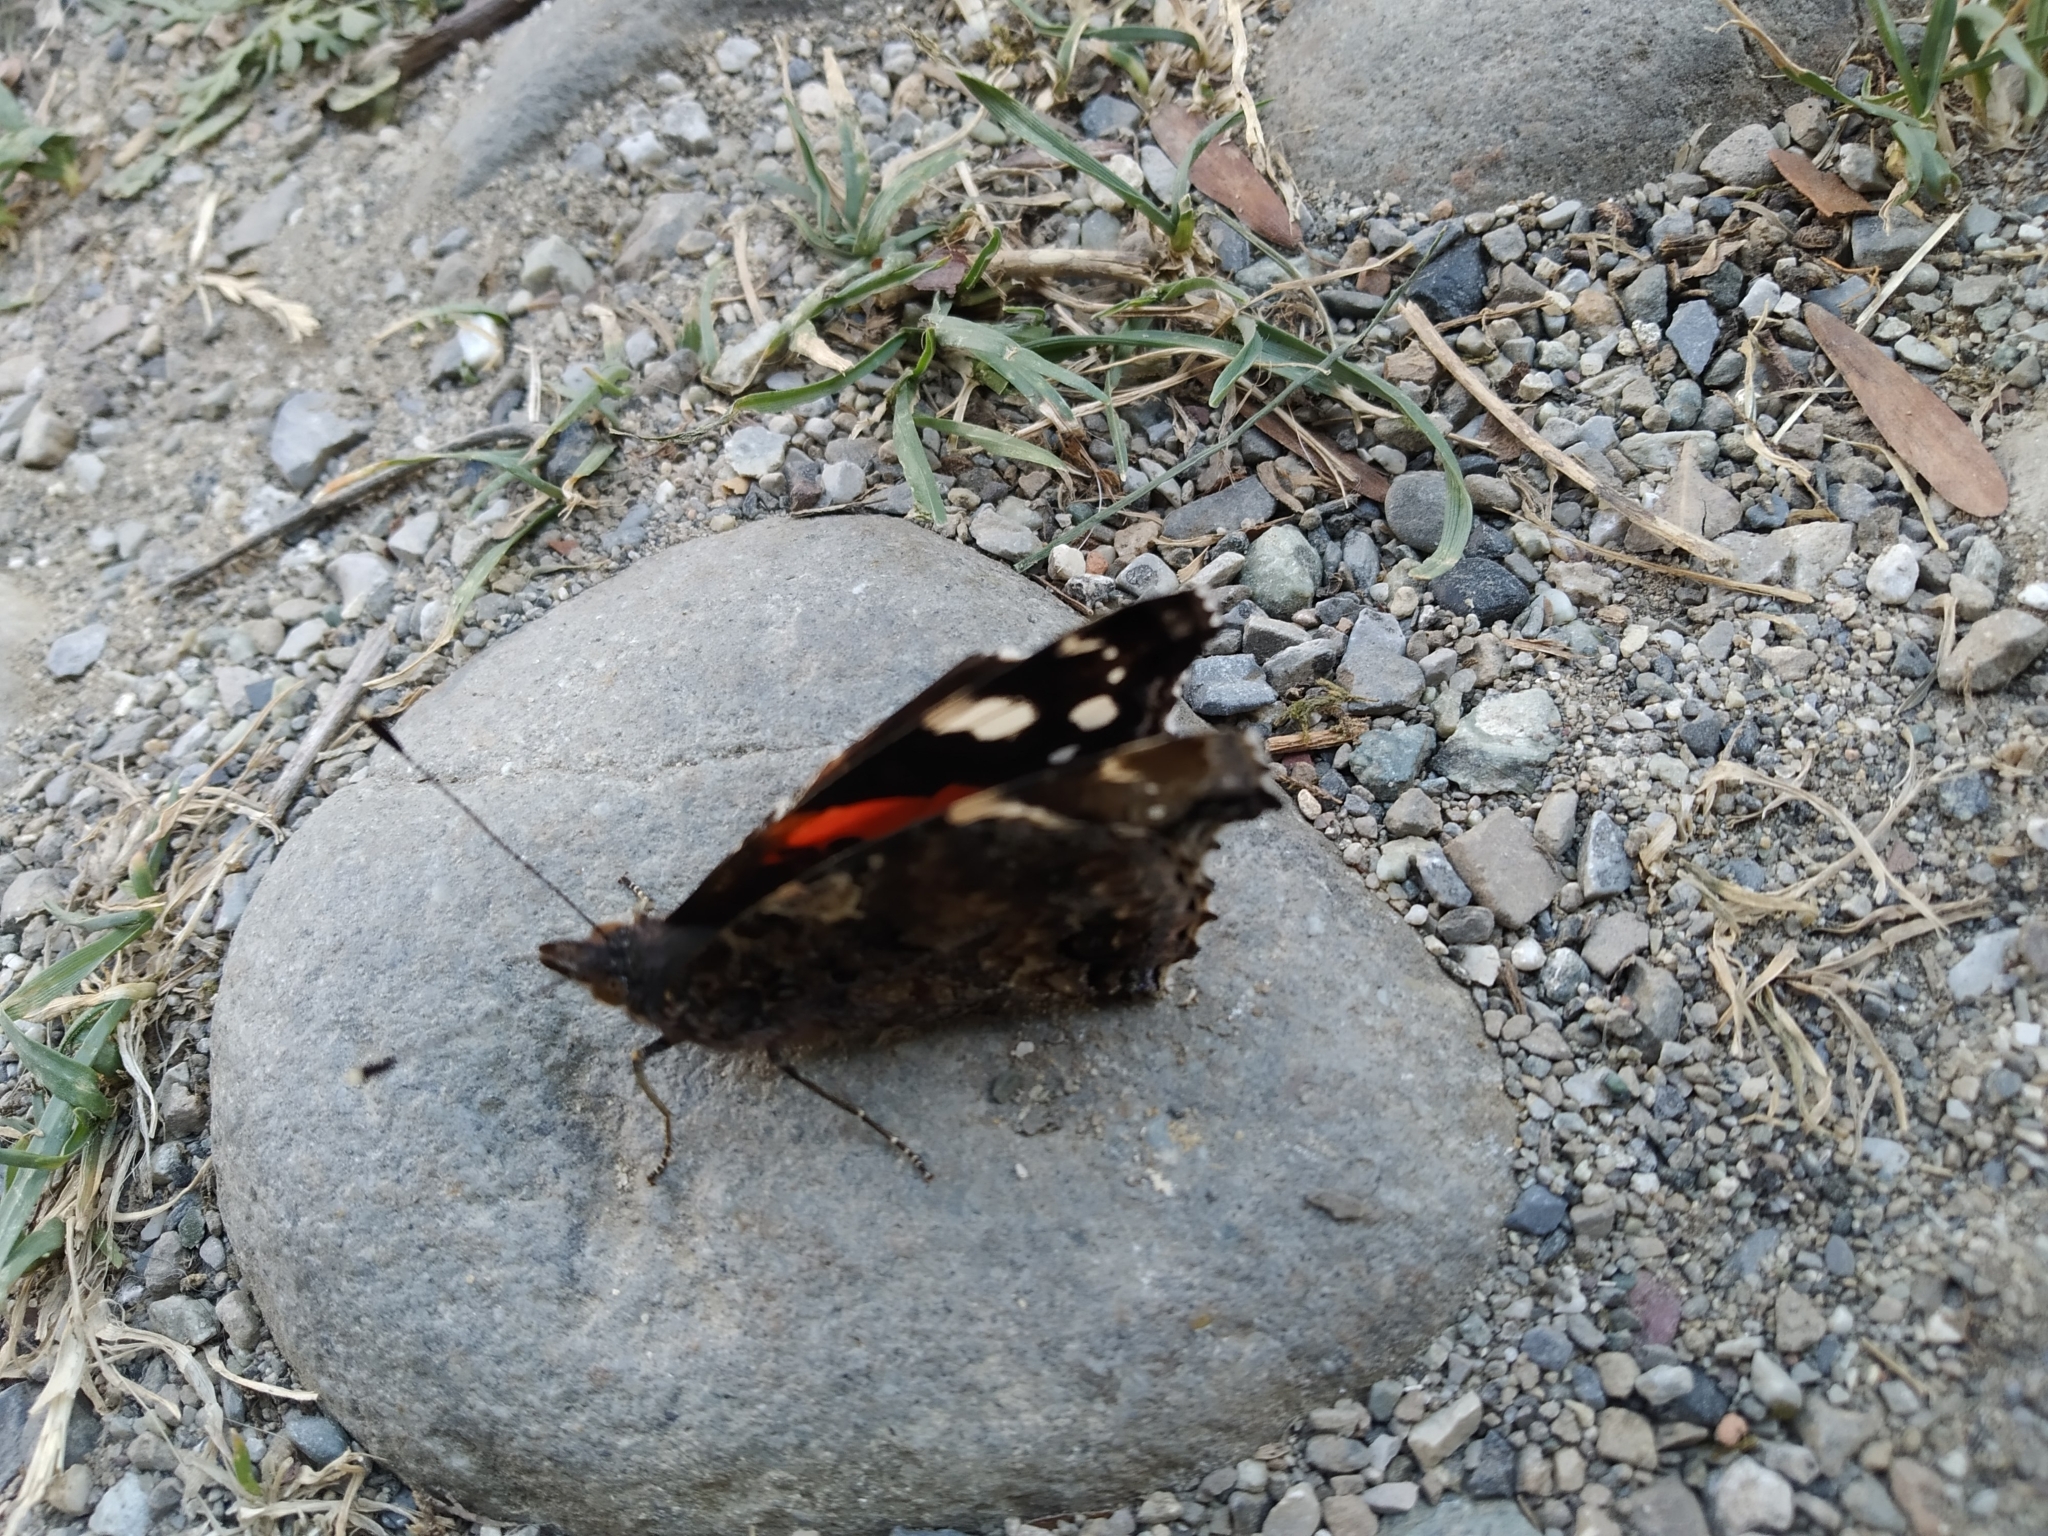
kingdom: Animalia
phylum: Arthropoda
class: Insecta
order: Lepidoptera
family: Nymphalidae
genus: Vanessa
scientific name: Vanessa atalanta
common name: Red admiral
